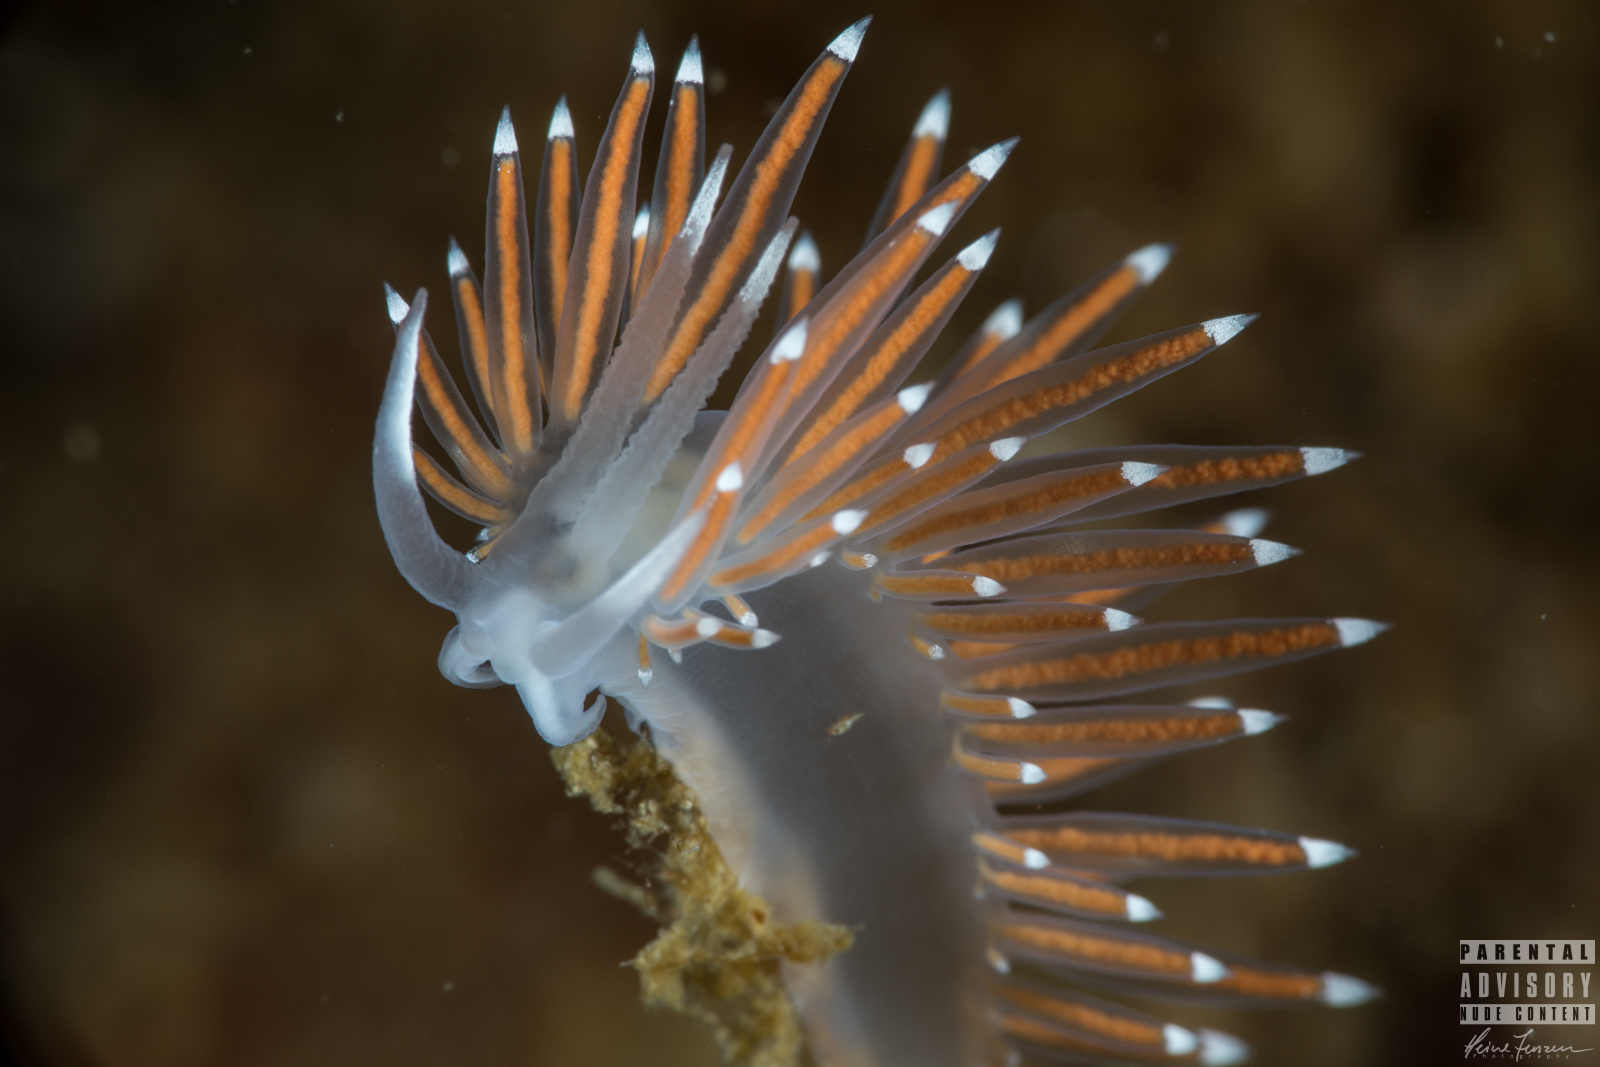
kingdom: Animalia
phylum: Mollusca
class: Gastropoda
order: Nudibranchia
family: Coryphellidae
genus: Coryphella
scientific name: Coryphella browni
